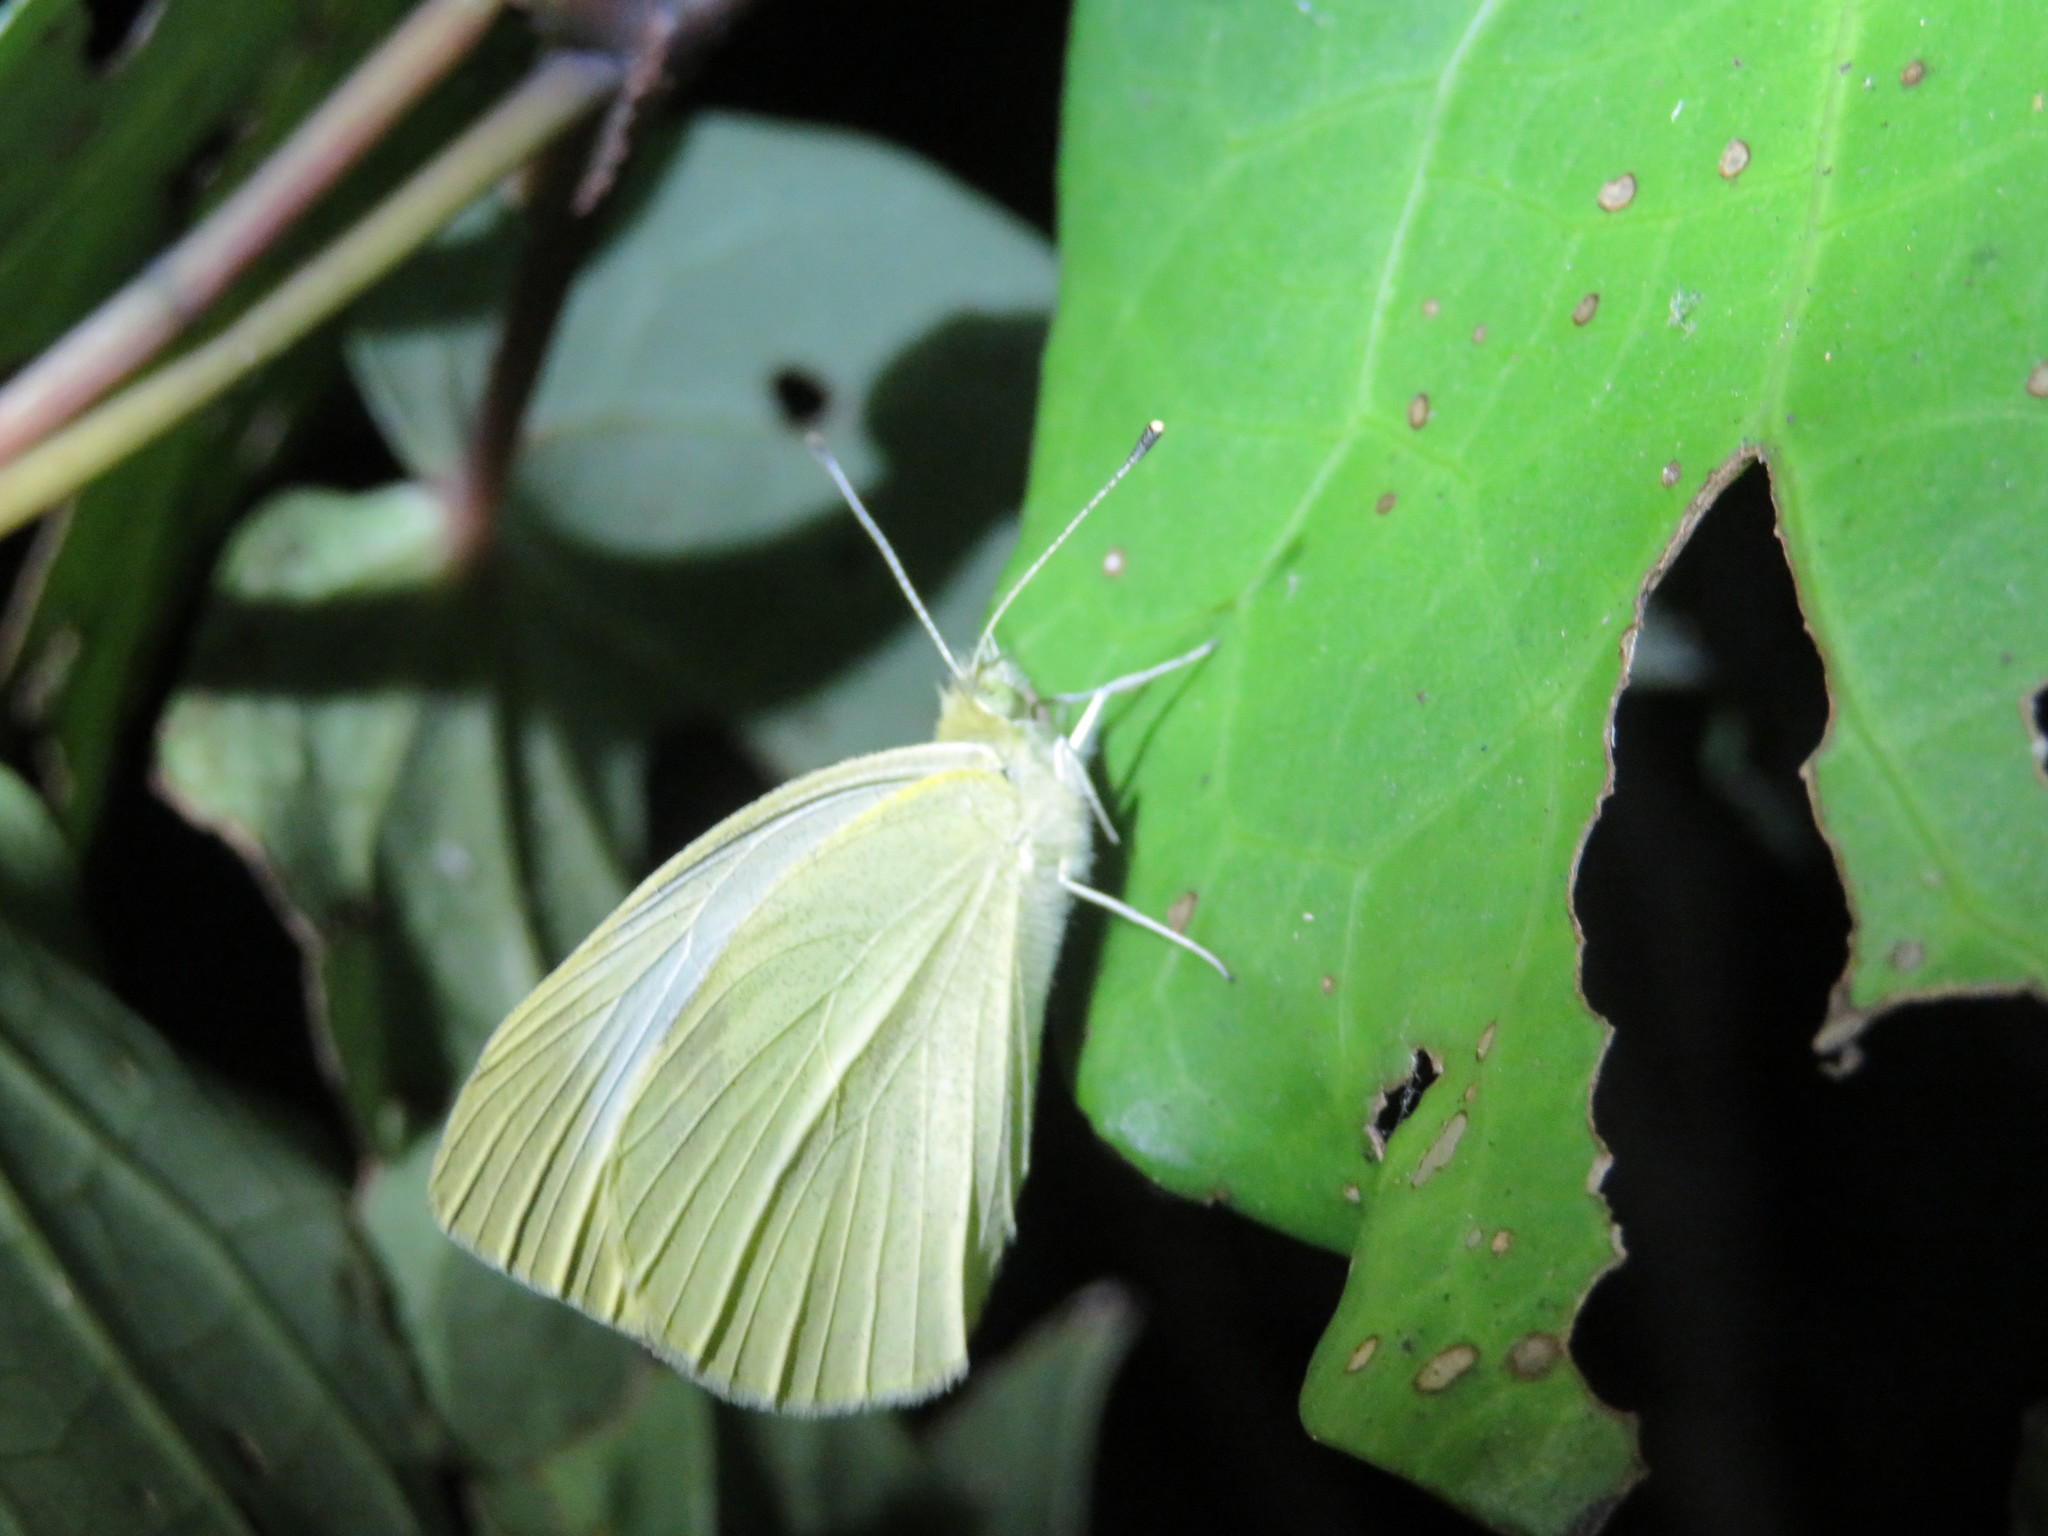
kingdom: Animalia
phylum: Arthropoda
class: Insecta
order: Lepidoptera
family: Pieridae
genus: Pieris
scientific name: Pieris rapae
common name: Small white
